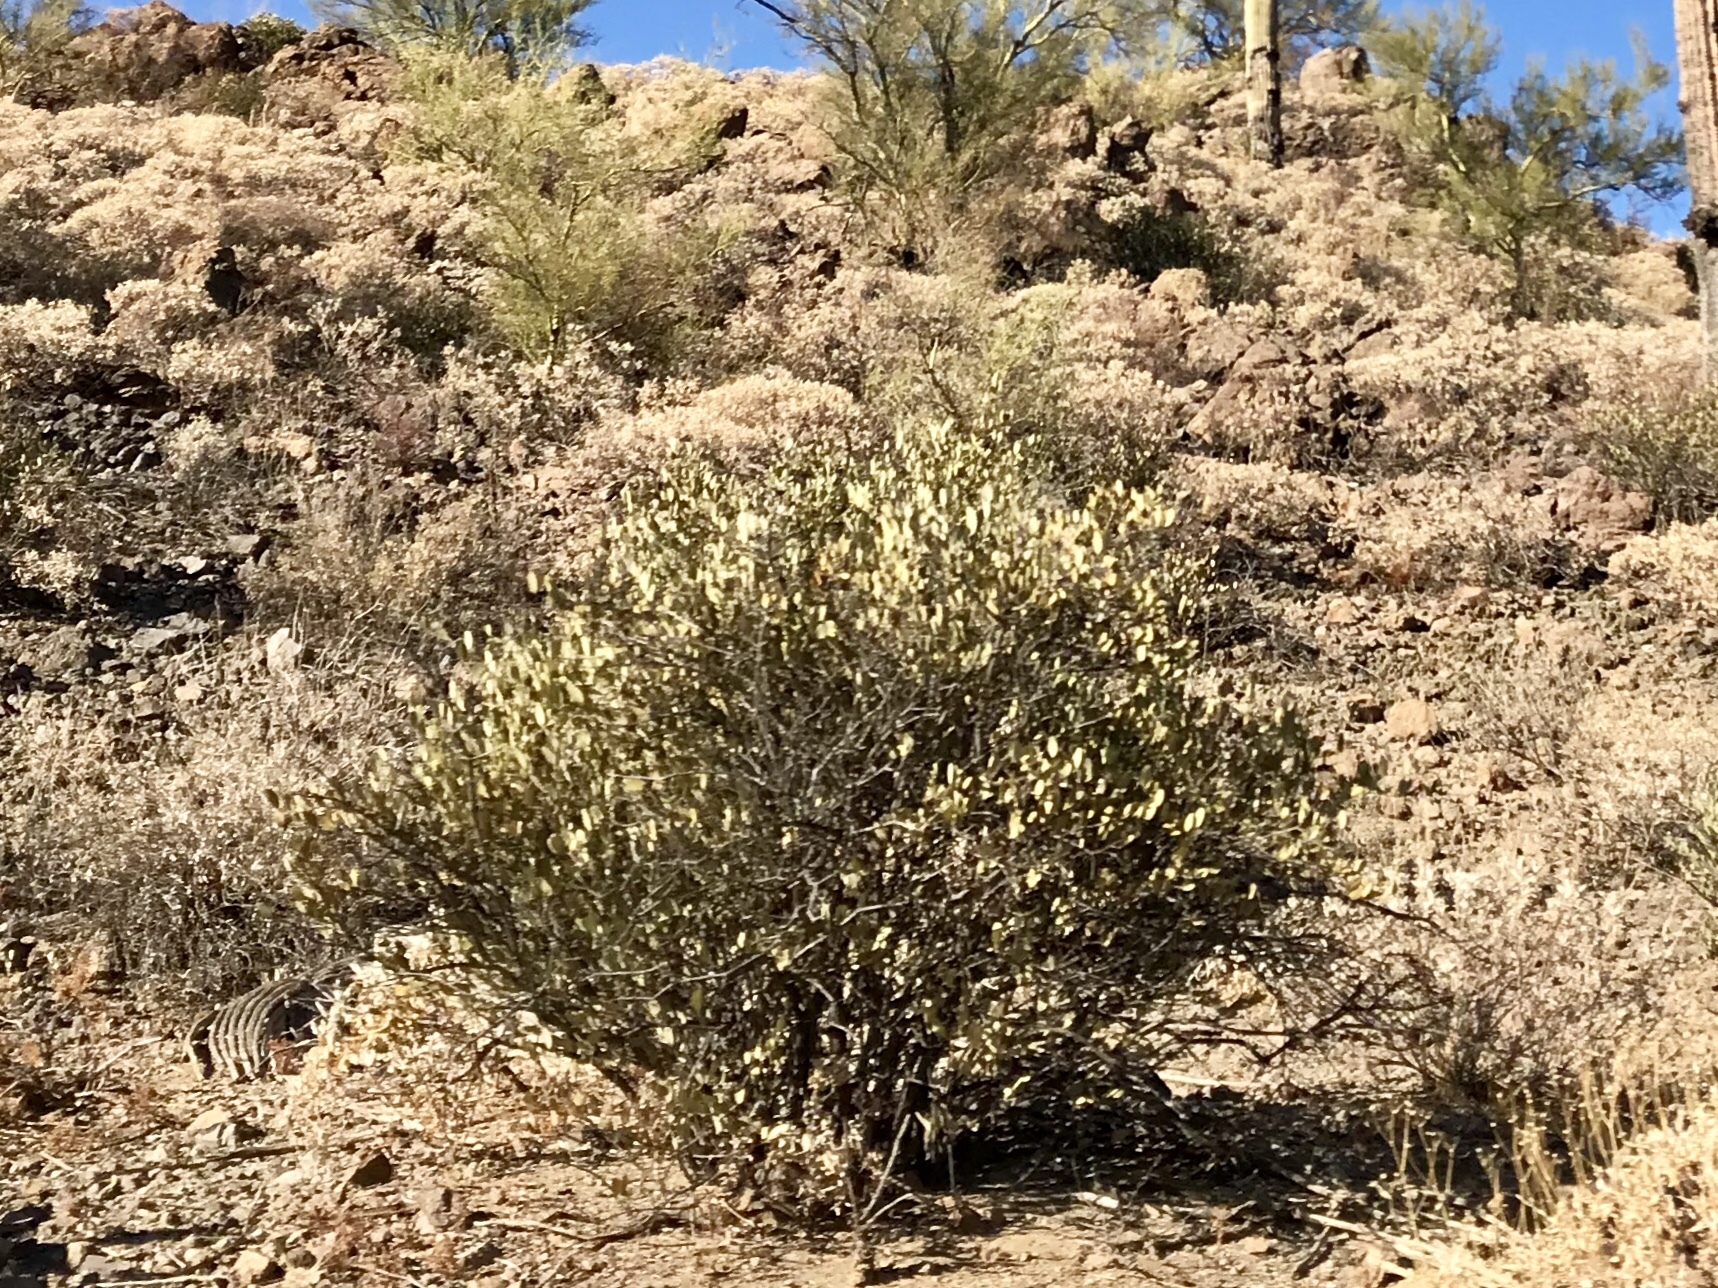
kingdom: Plantae
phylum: Tracheophyta
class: Magnoliopsida
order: Caryophyllales
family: Simmondsiaceae
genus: Simmondsia
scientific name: Simmondsia chinensis
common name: Jojoba
